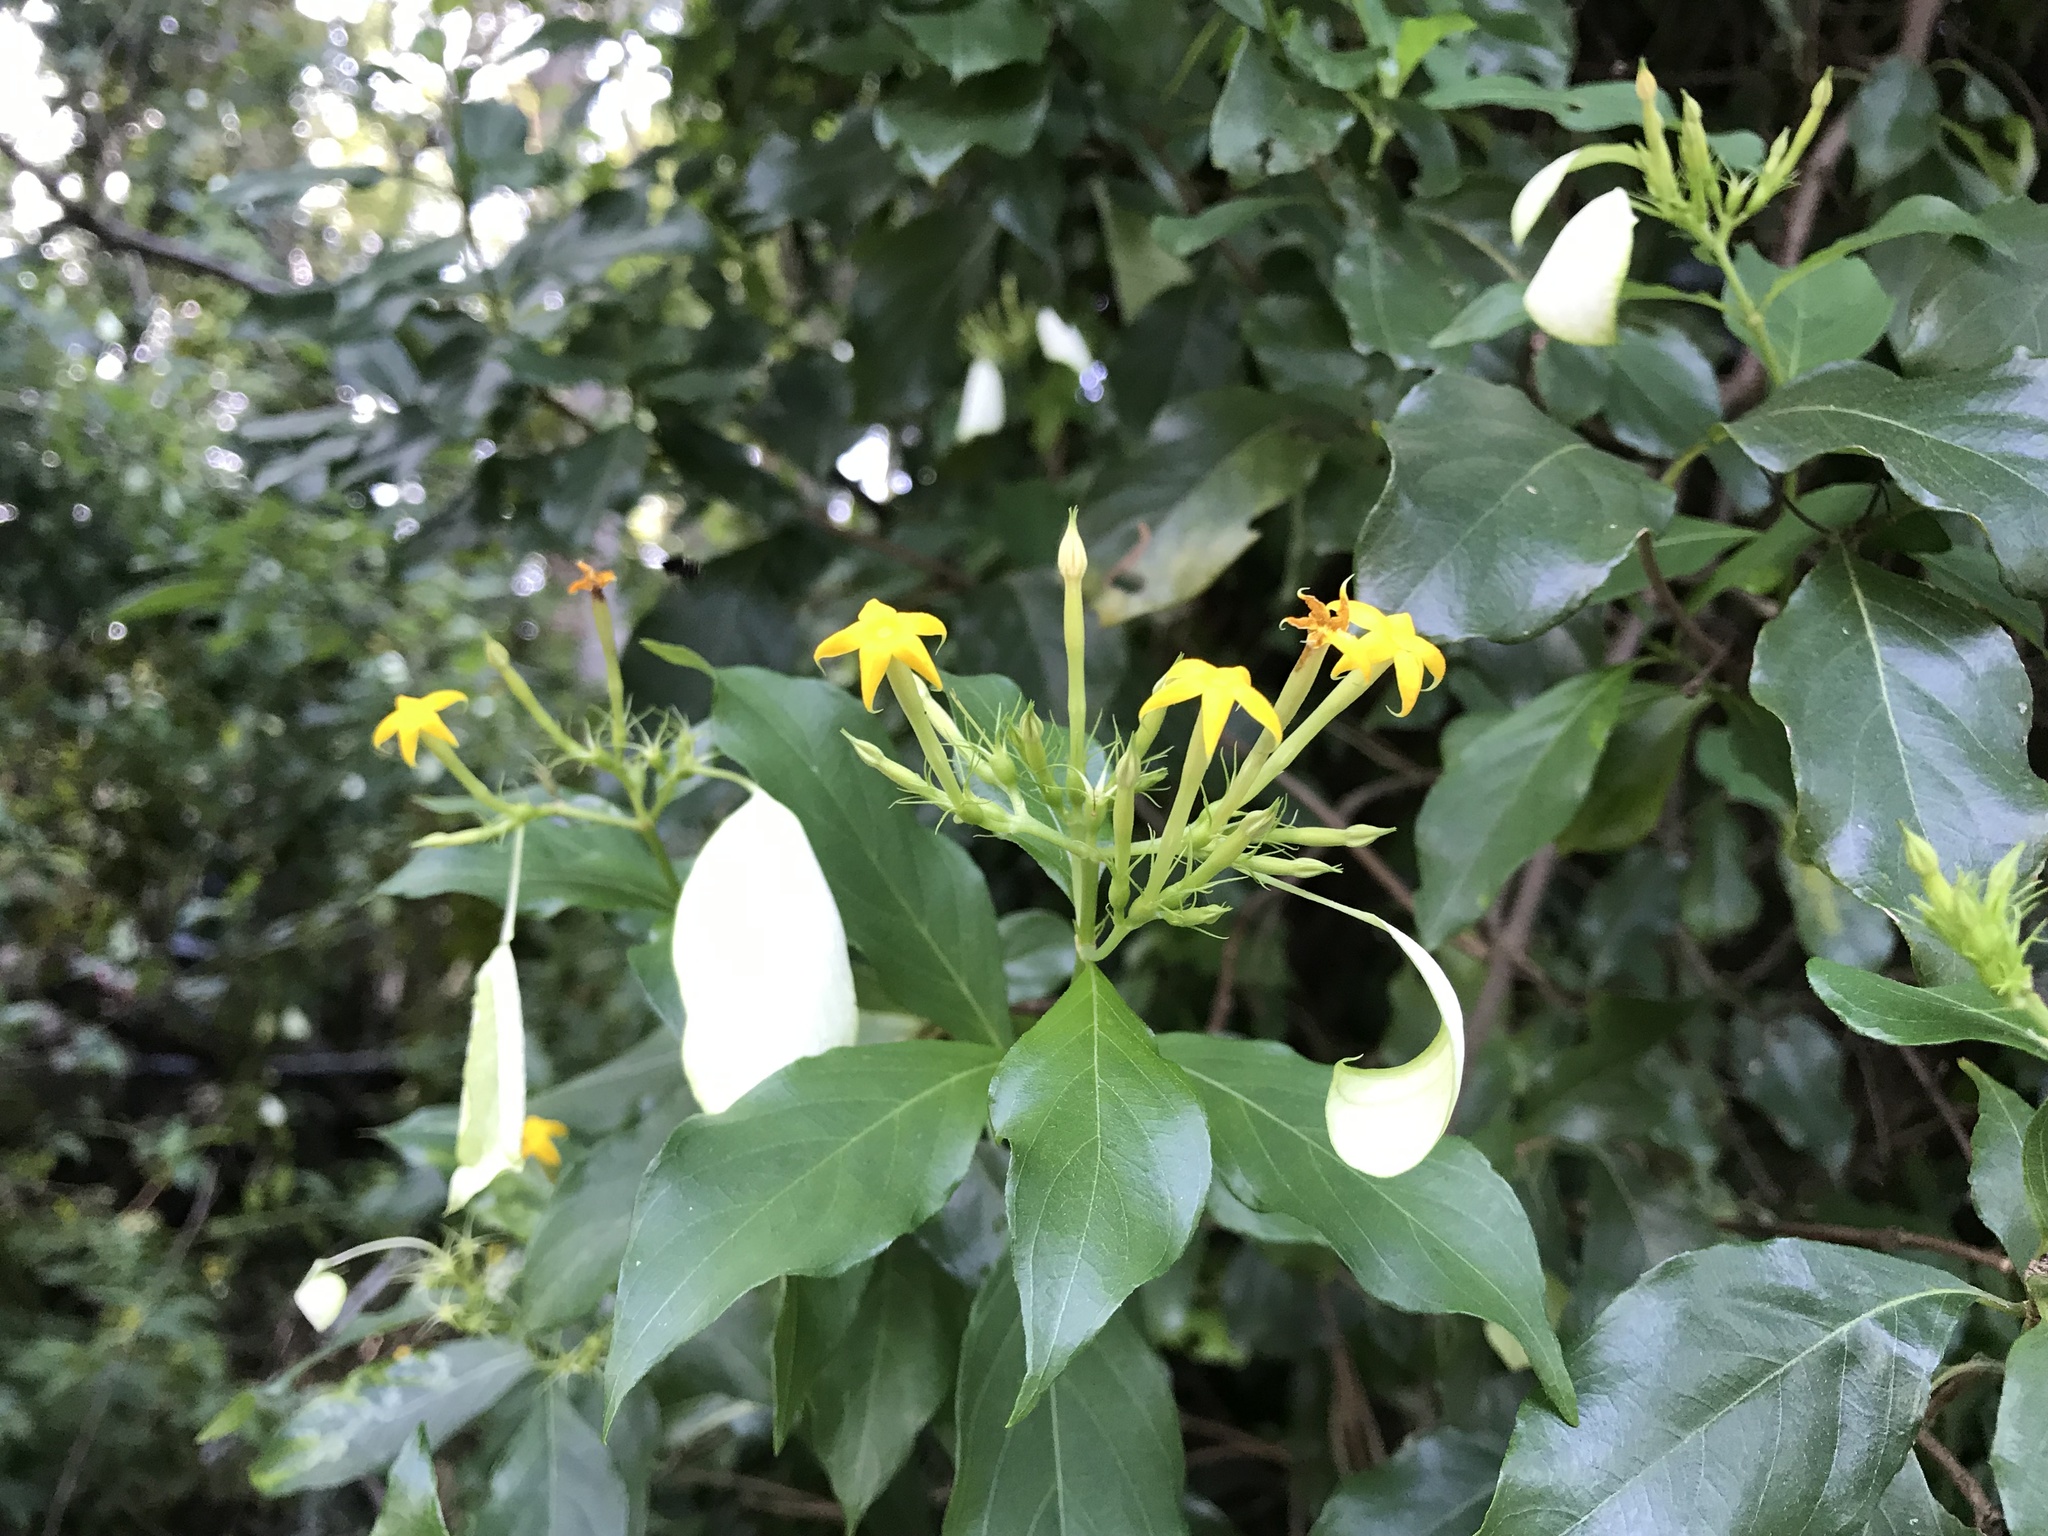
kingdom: Plantae
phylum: Tracheophyta
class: Magnoliopsida
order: Gentianales
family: Rubiaceae
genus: Mussaenda
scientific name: Mussaenda formosana
